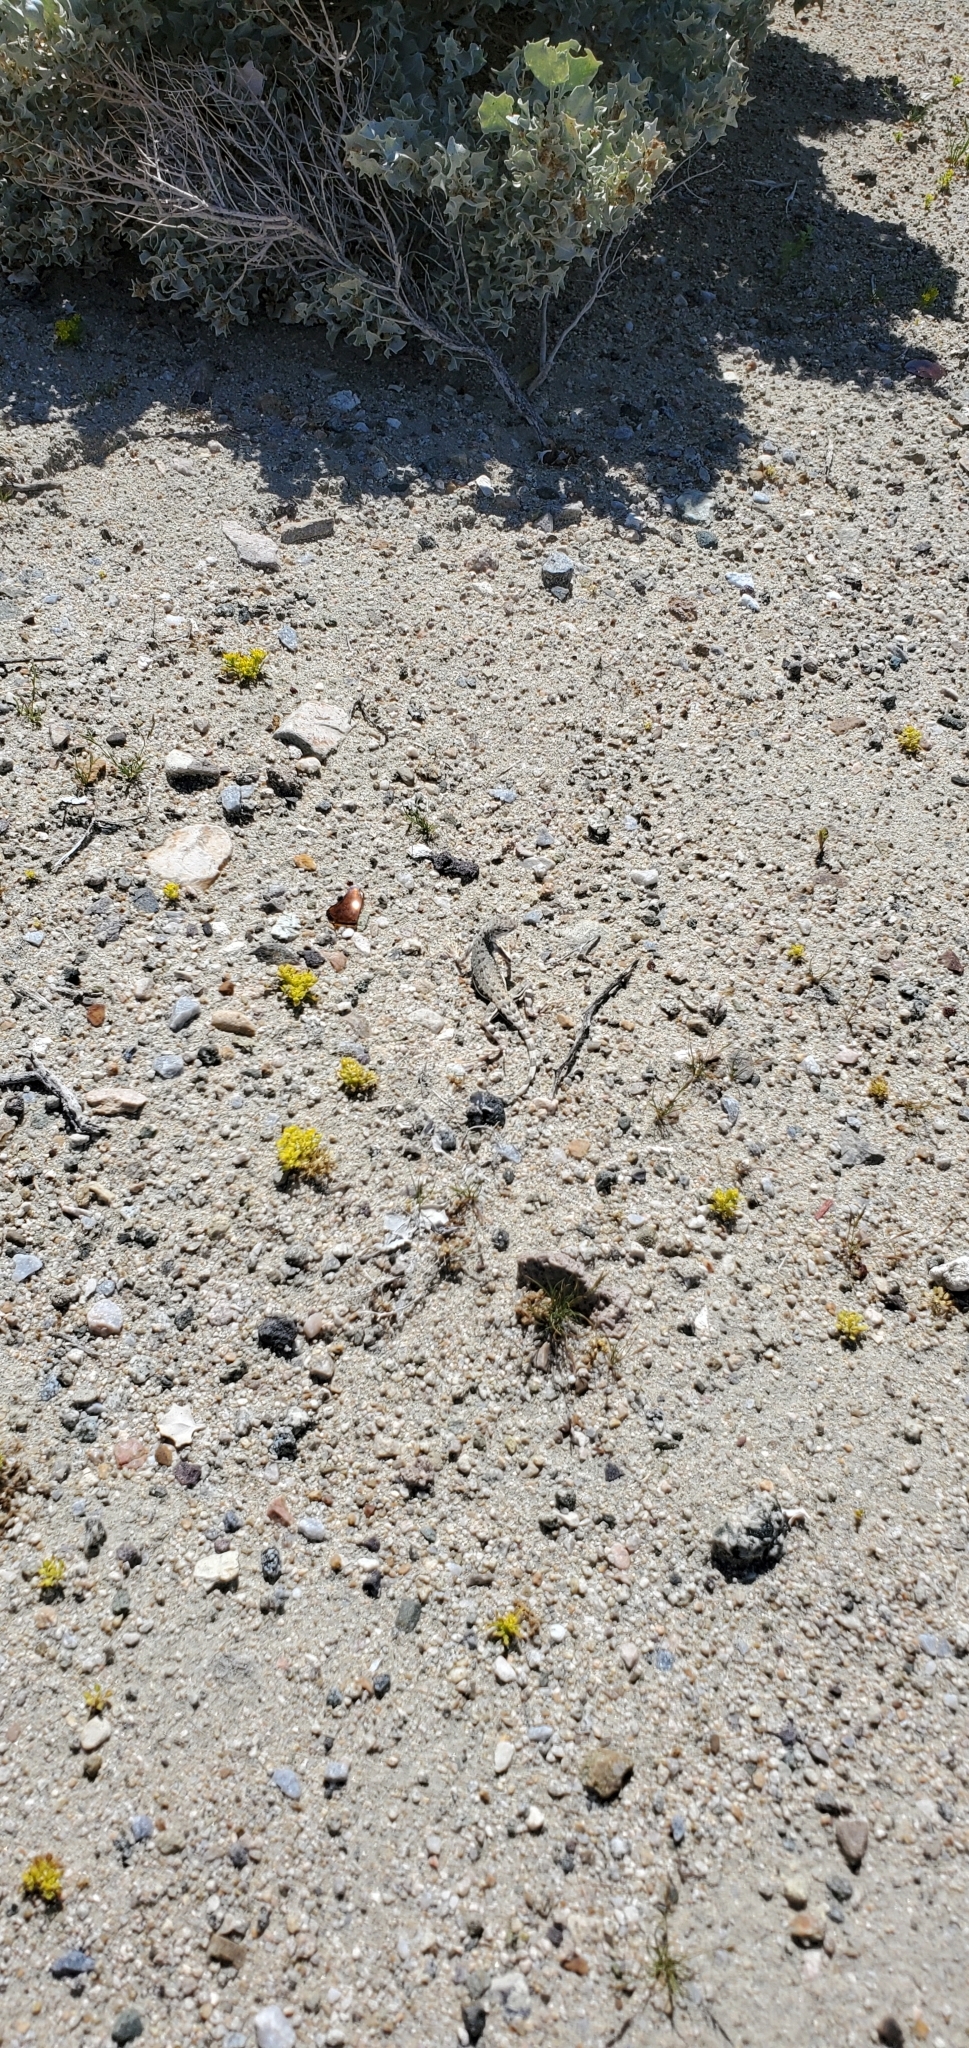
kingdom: Animalia
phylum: Chordata
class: Squamata
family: Phrynosomatidae
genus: Callisaurus
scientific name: Callisaurus draconoides
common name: Zebra-tailed lizard
